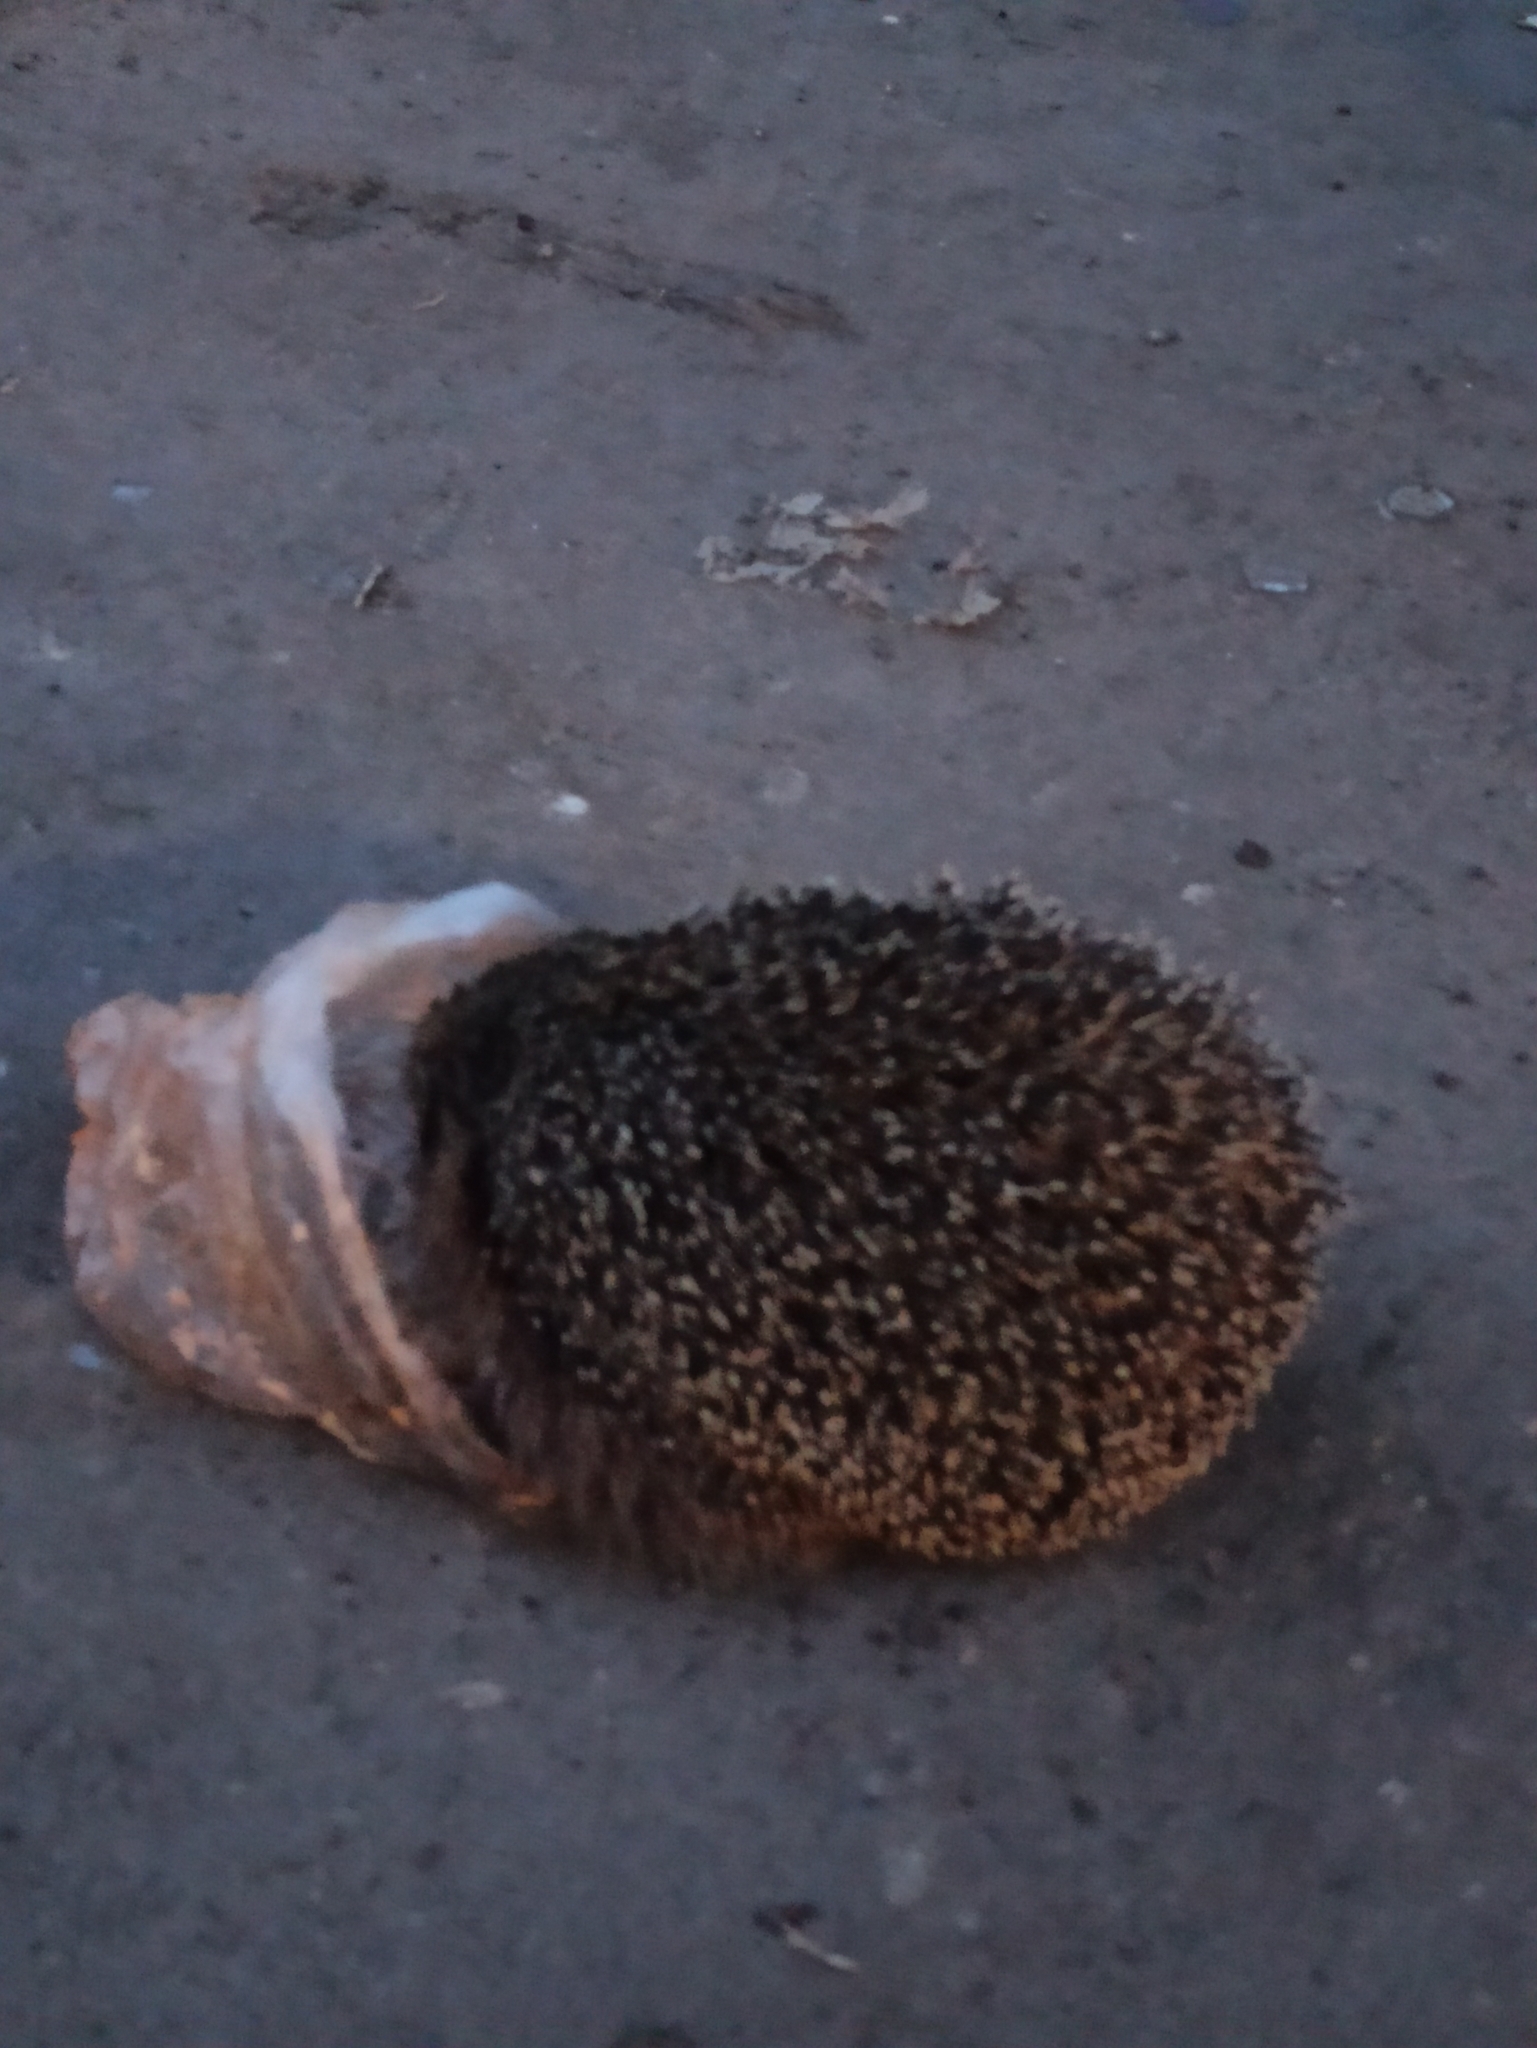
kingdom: Animalia
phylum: Chordata
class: Mammalia
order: Erinaceomorpha
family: Erinaceidae
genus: Erinaceus
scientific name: Erinaceus roumanicus
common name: Northern white-breasted hedgehog
